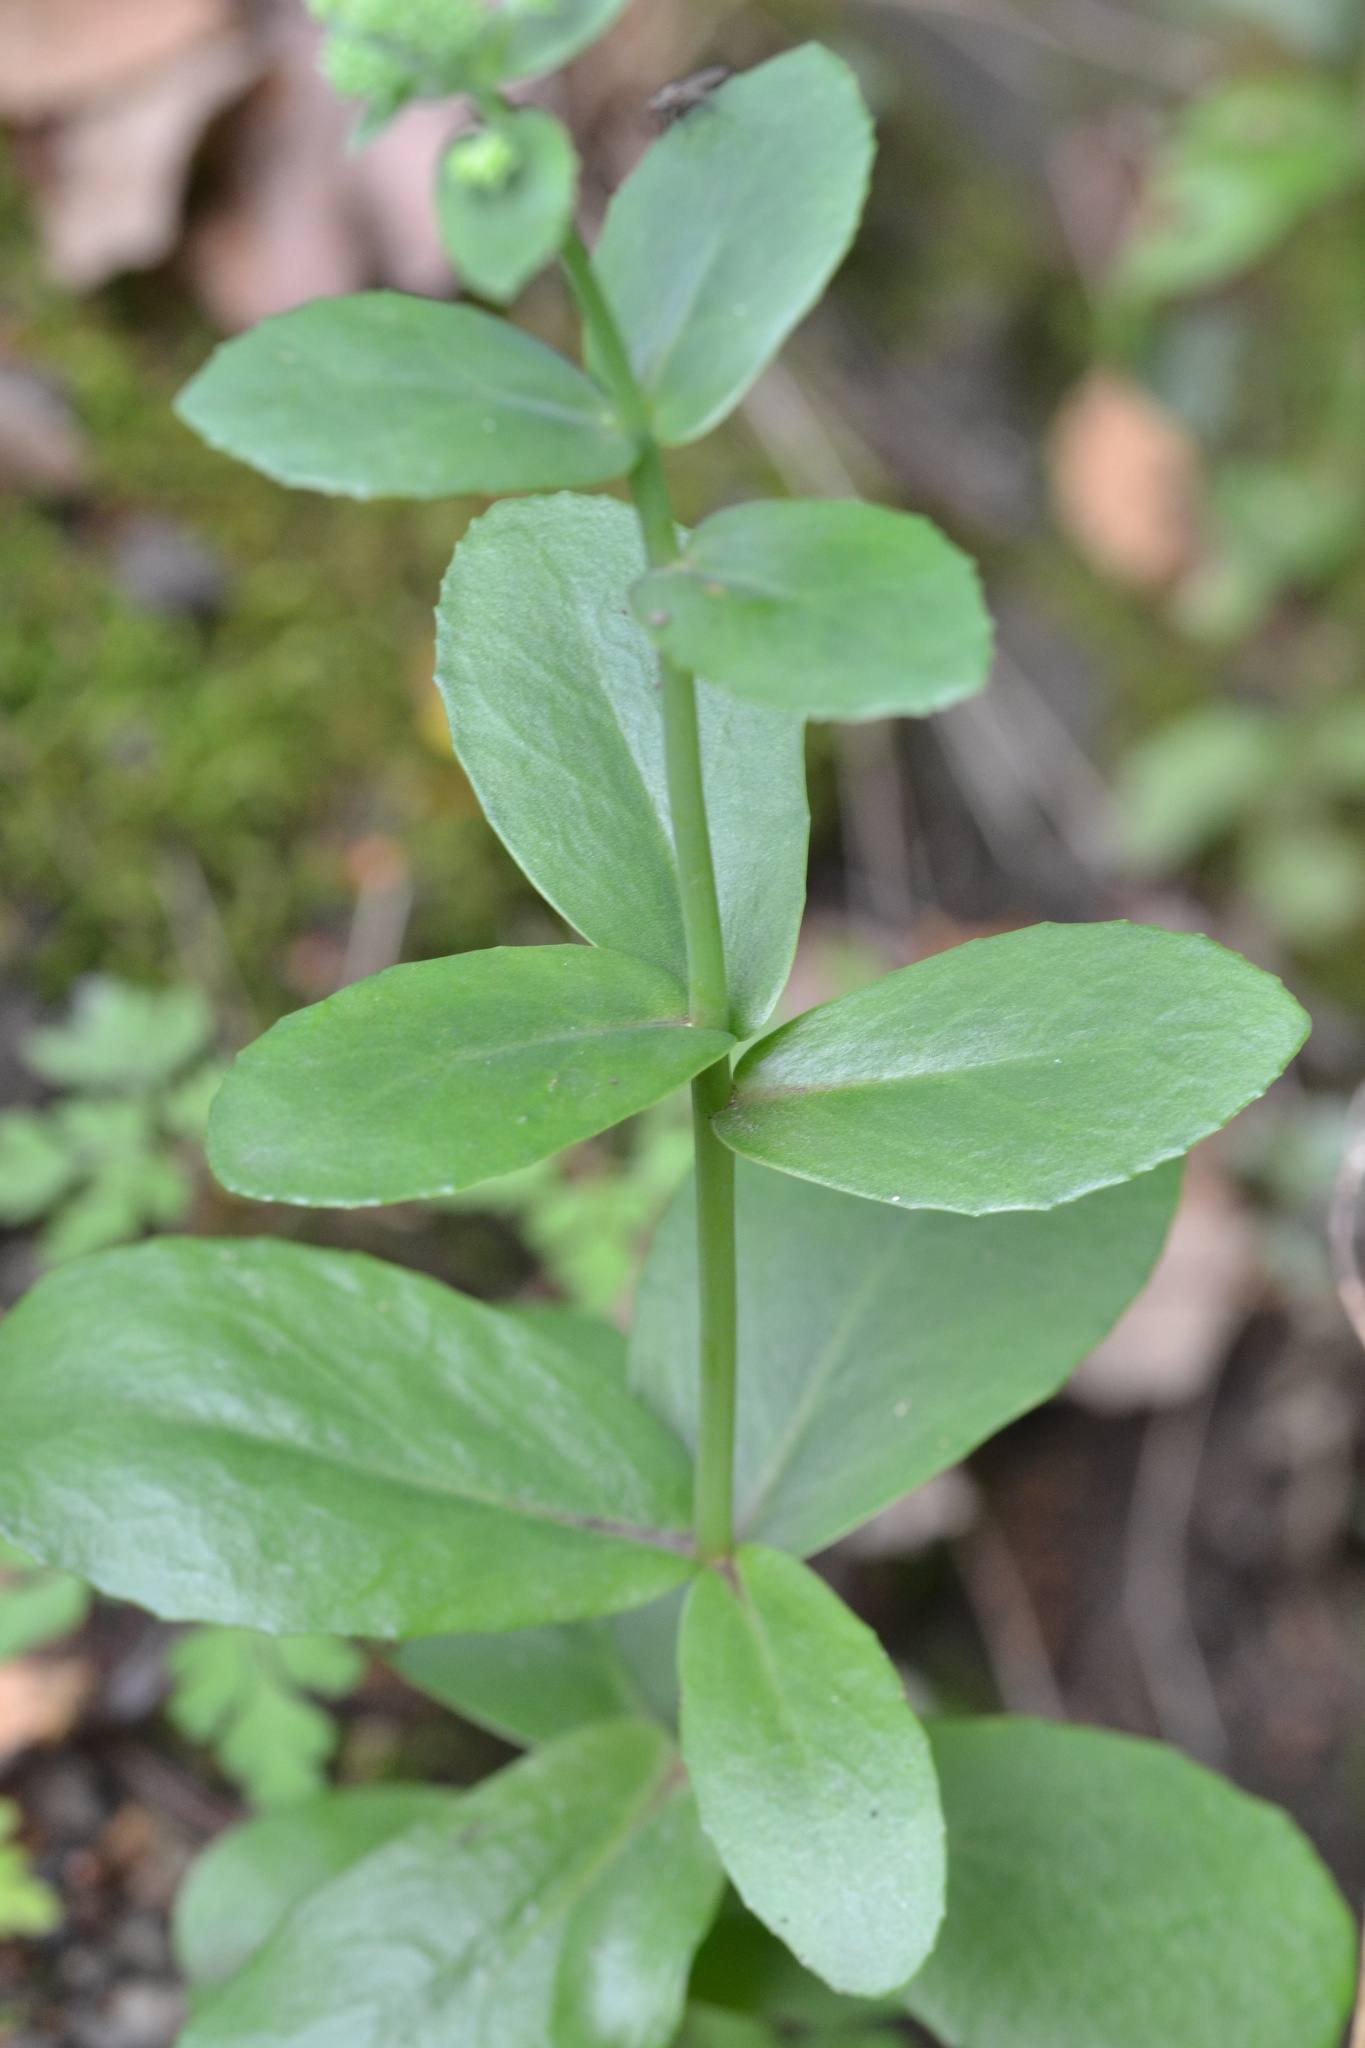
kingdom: Plantae
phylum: Tracheophyta
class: Magnoliopsida
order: Saxifragales
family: Crassulaceae
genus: Hylotelephium
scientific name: Hylotelephium maximum
